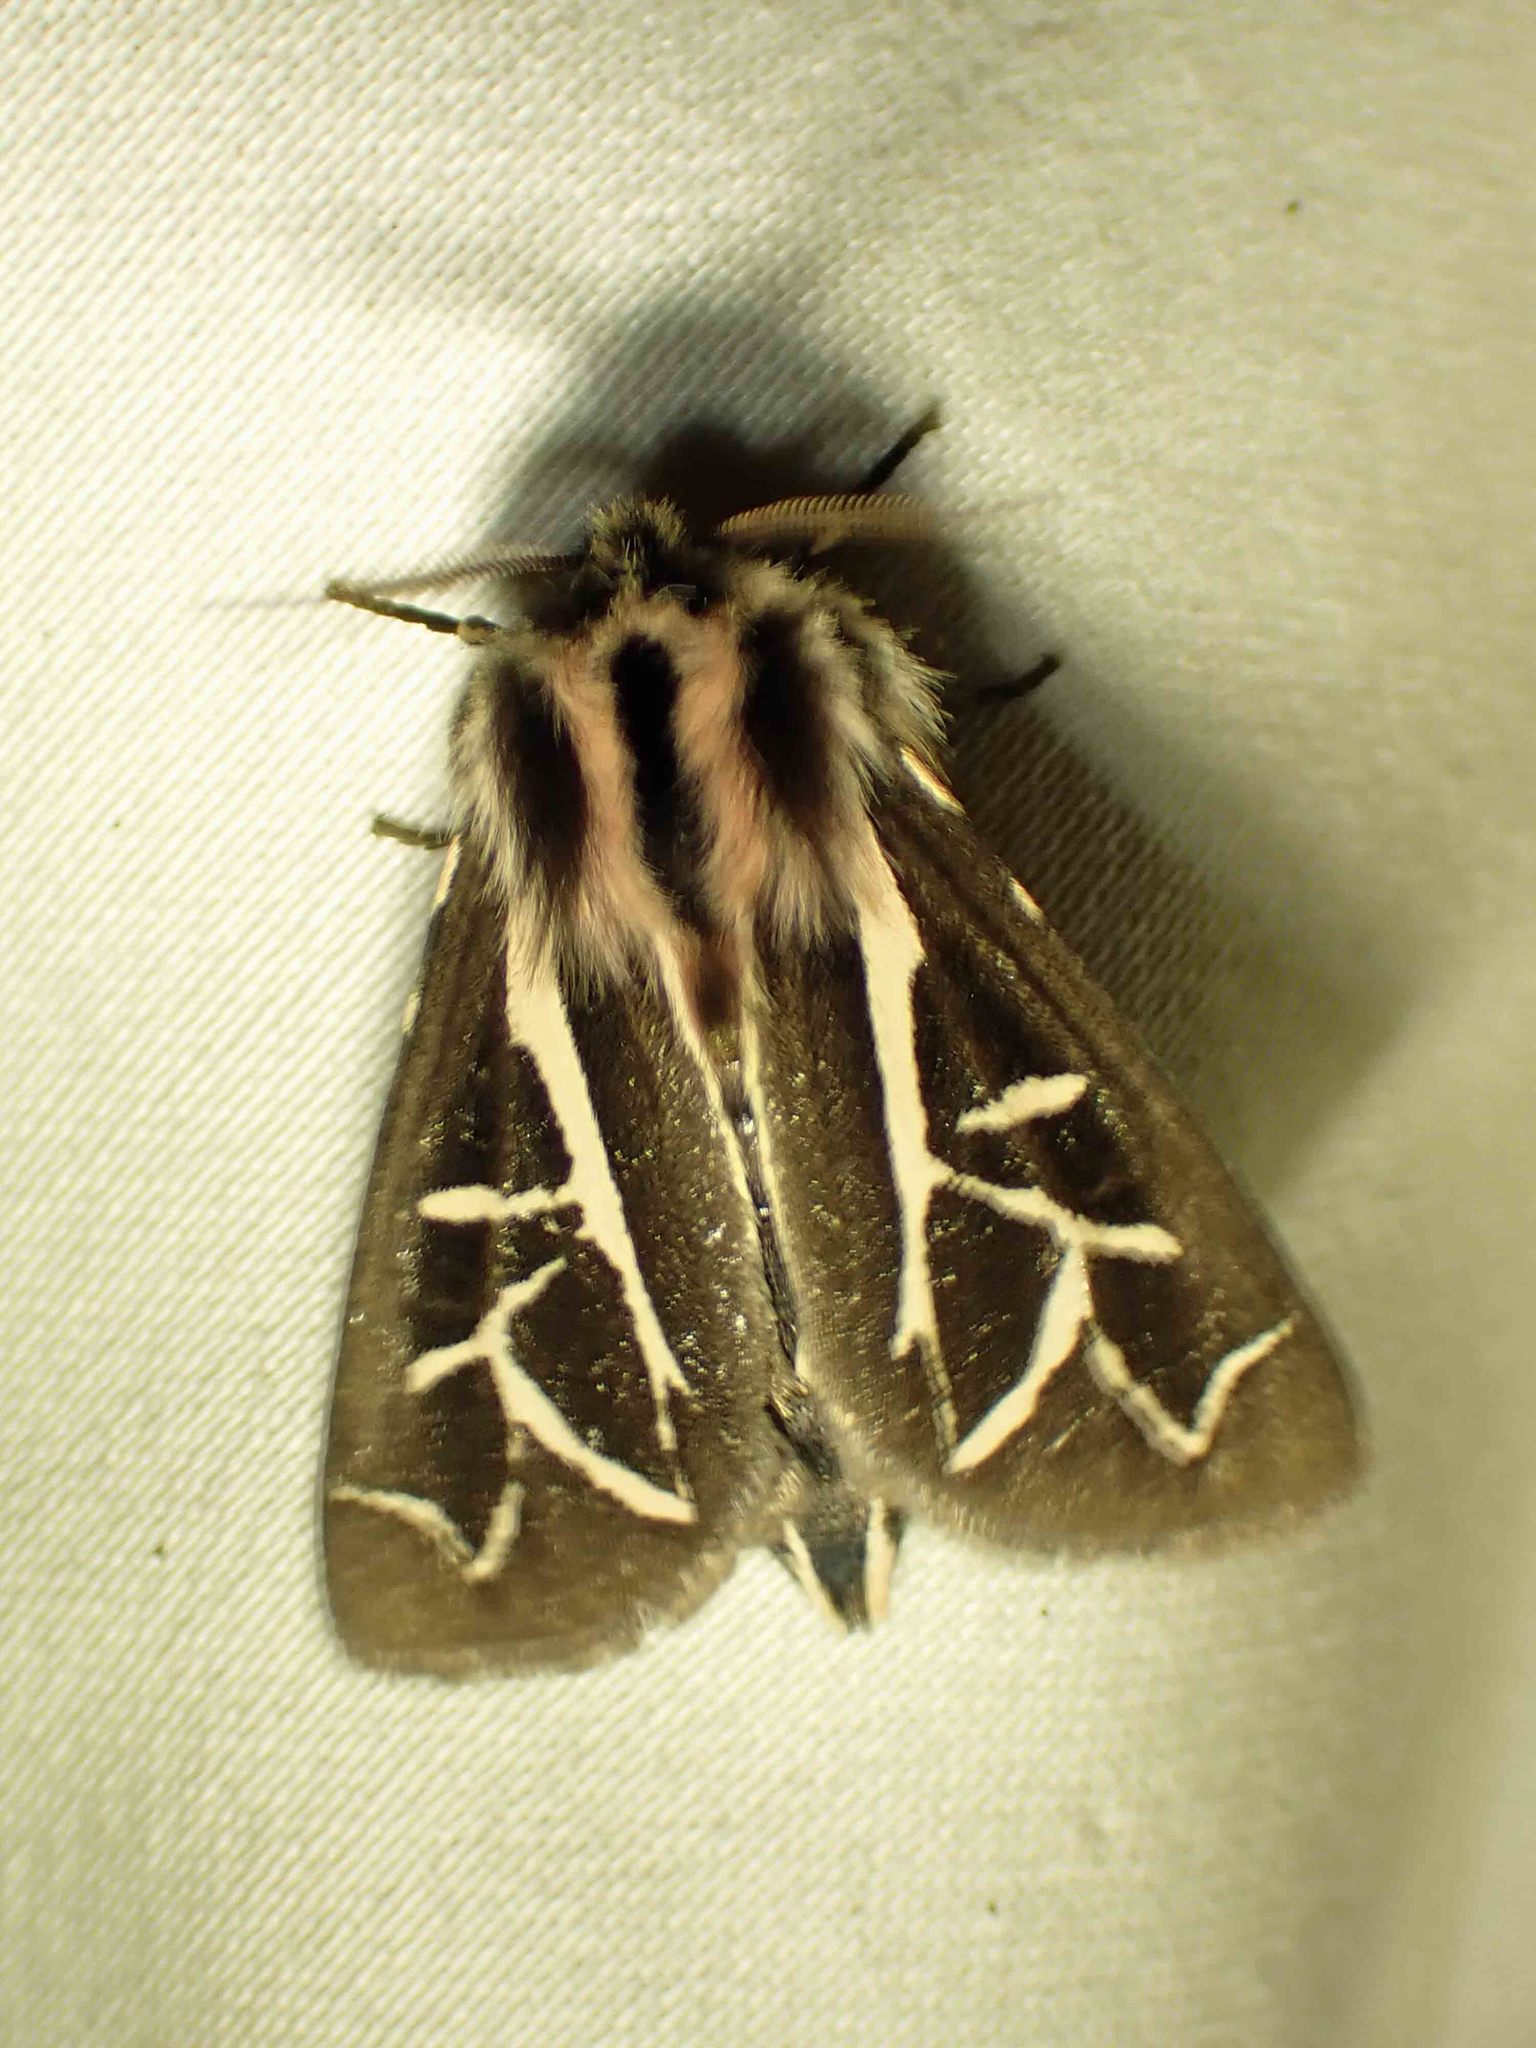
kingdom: Animalia
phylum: Arthropoda
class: Insecta
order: Lepidoptera
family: Erebidae
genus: Apantesis
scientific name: Apantesis
